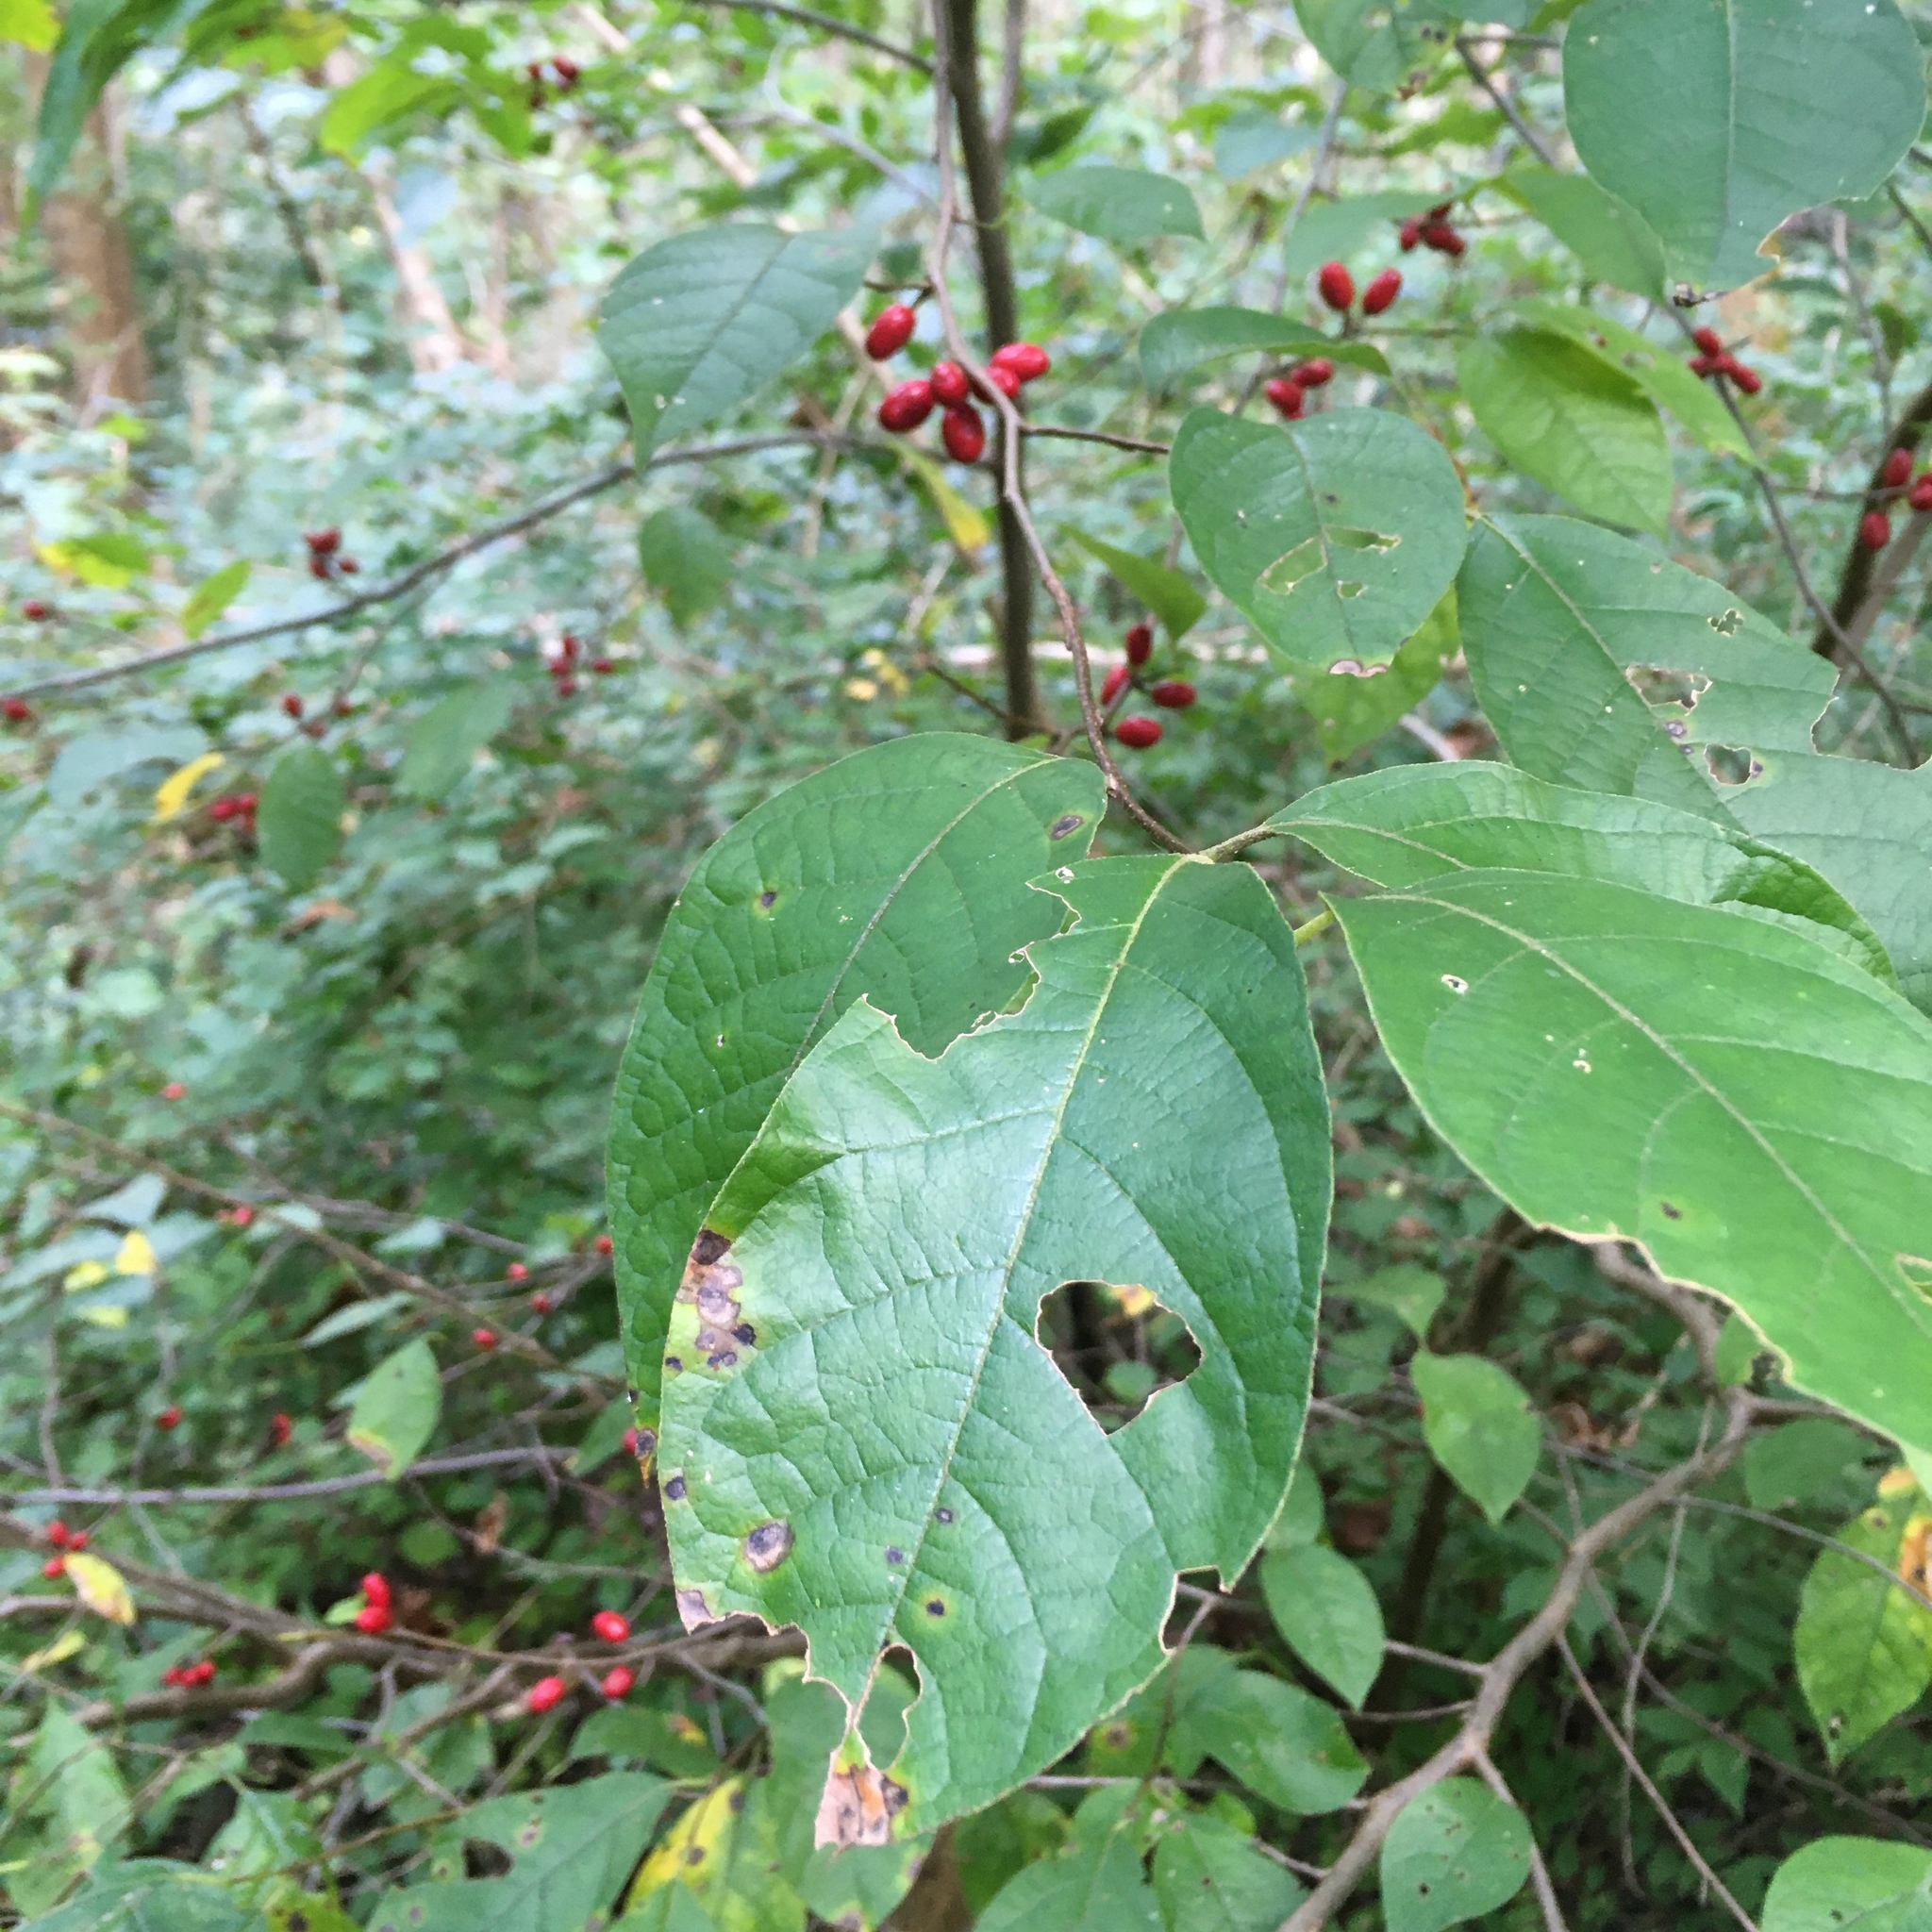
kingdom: Plantae
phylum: Tracheophyta
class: Magnoliopsida
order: Laurales
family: Lauraceae
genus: Lindera
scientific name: Lindera benzoin
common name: Spicebush
